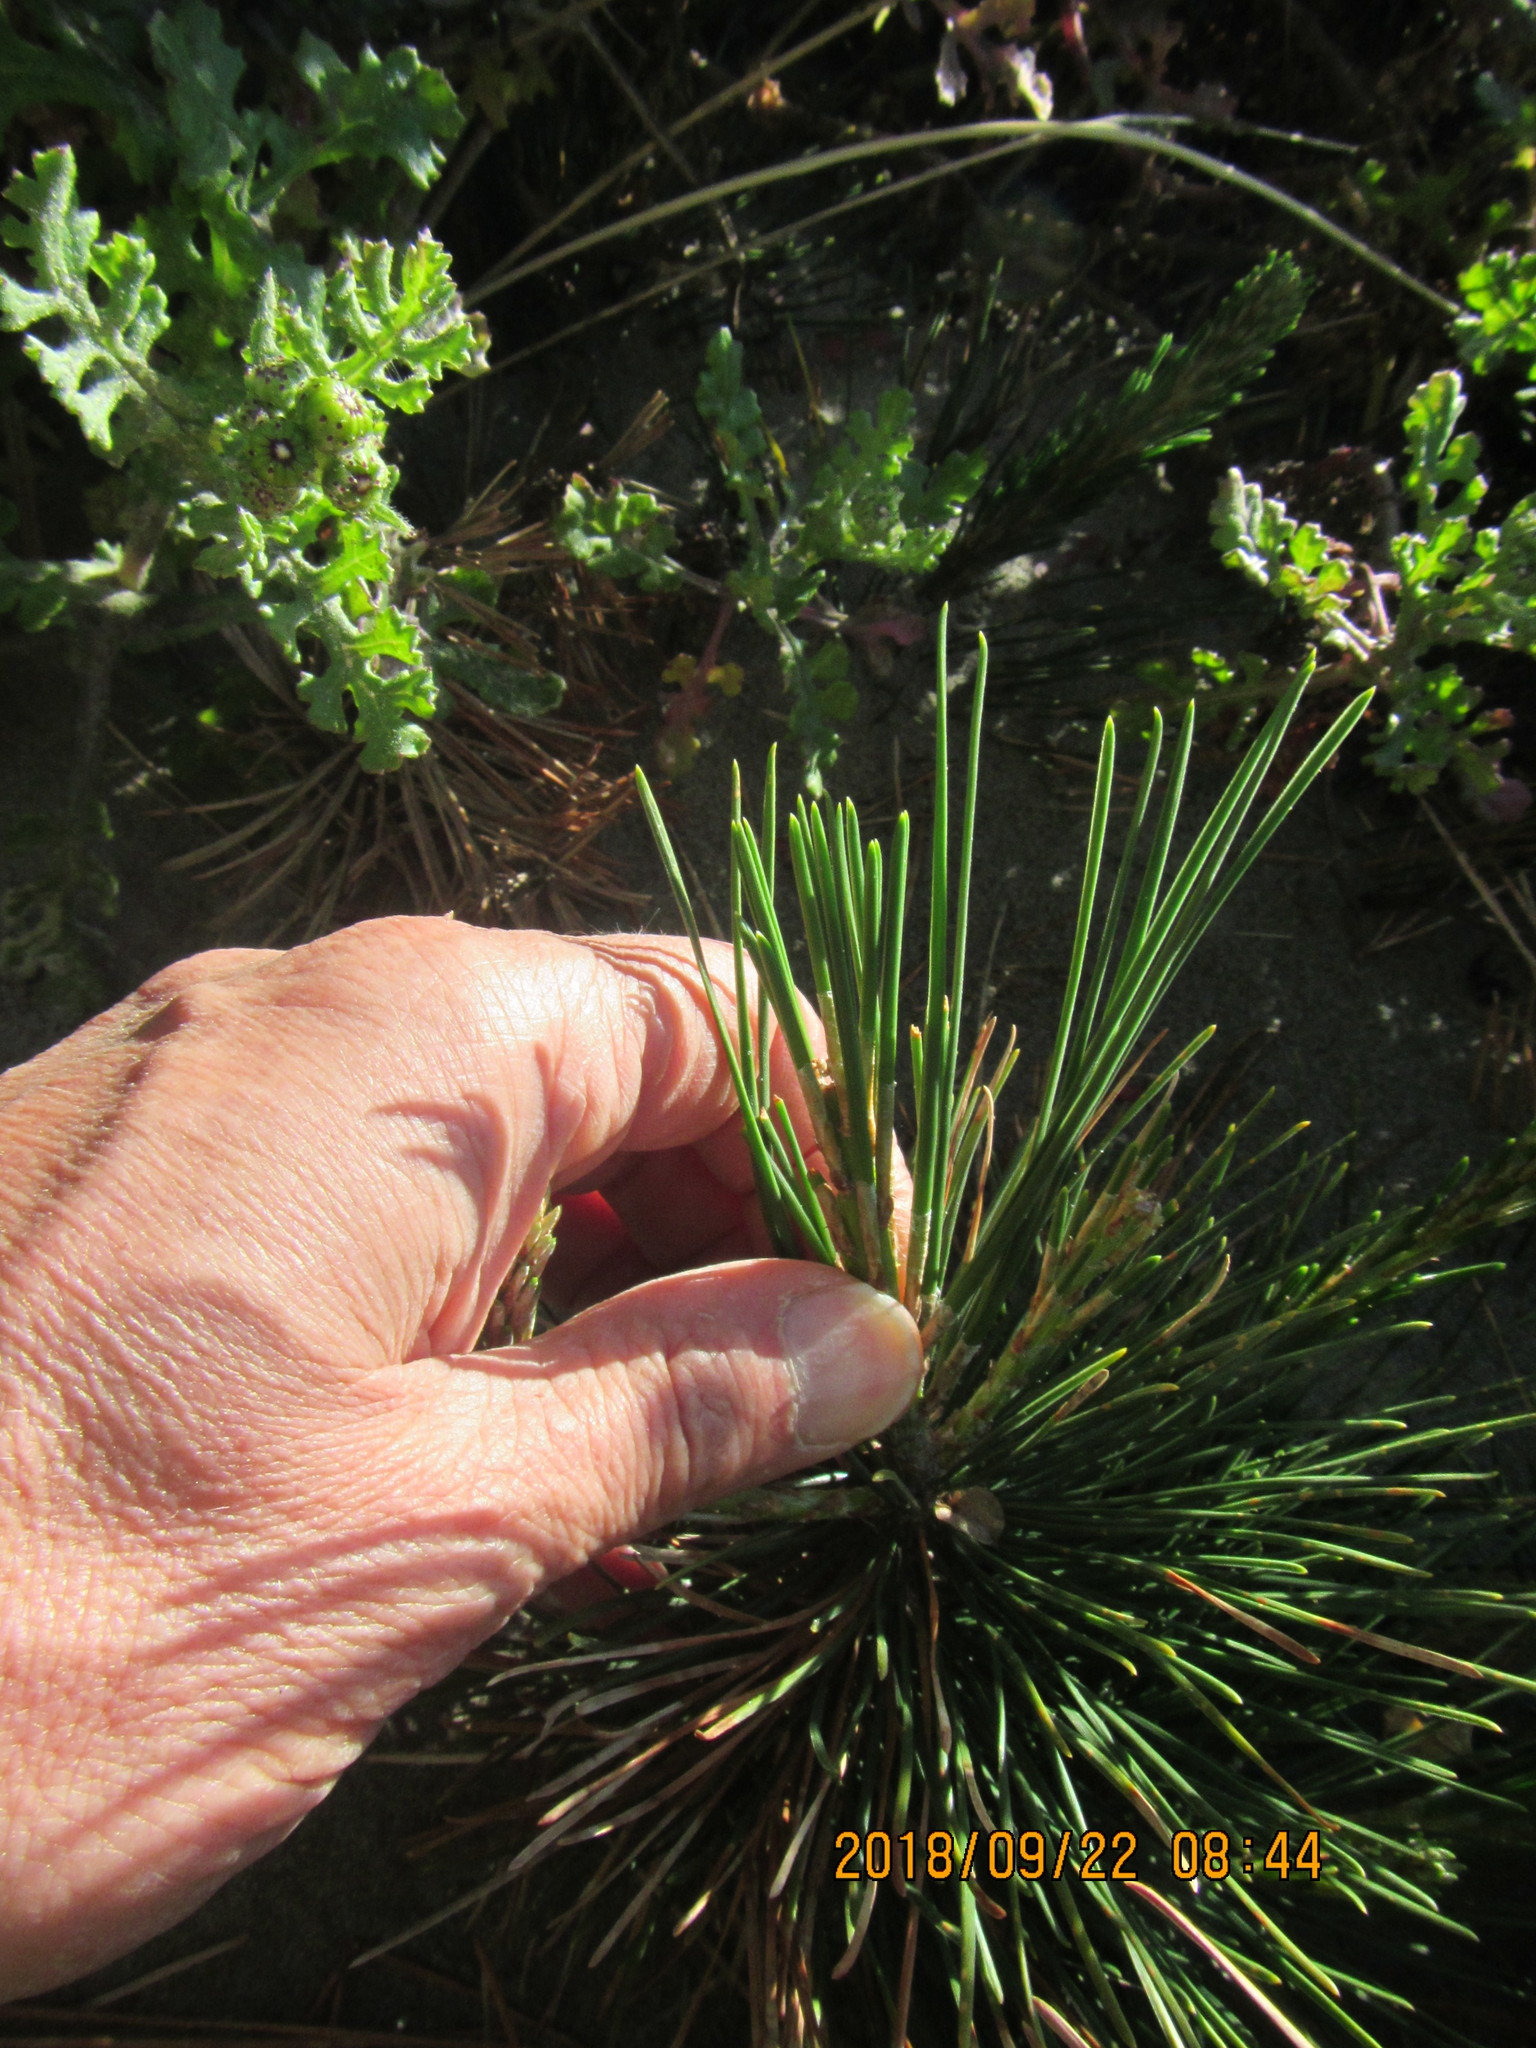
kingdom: Plantae
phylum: Tracheophyta
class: Pinopsida
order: Pinales
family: Pinaceae
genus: Pinus
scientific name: Pinus radiata
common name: Monterey pine
